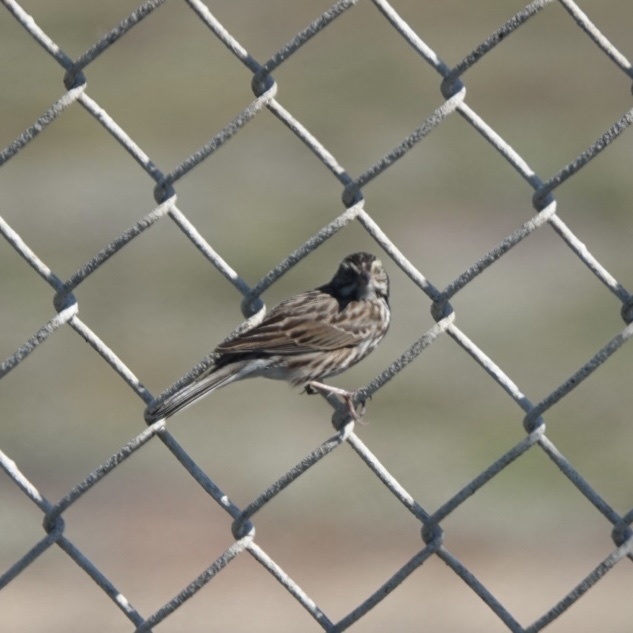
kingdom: Animalia
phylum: Chordata
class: Aves
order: Passeriformes
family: Passerellidae
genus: Passerculus
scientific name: Passerculus sandwichensis
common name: Savannah sparrow
